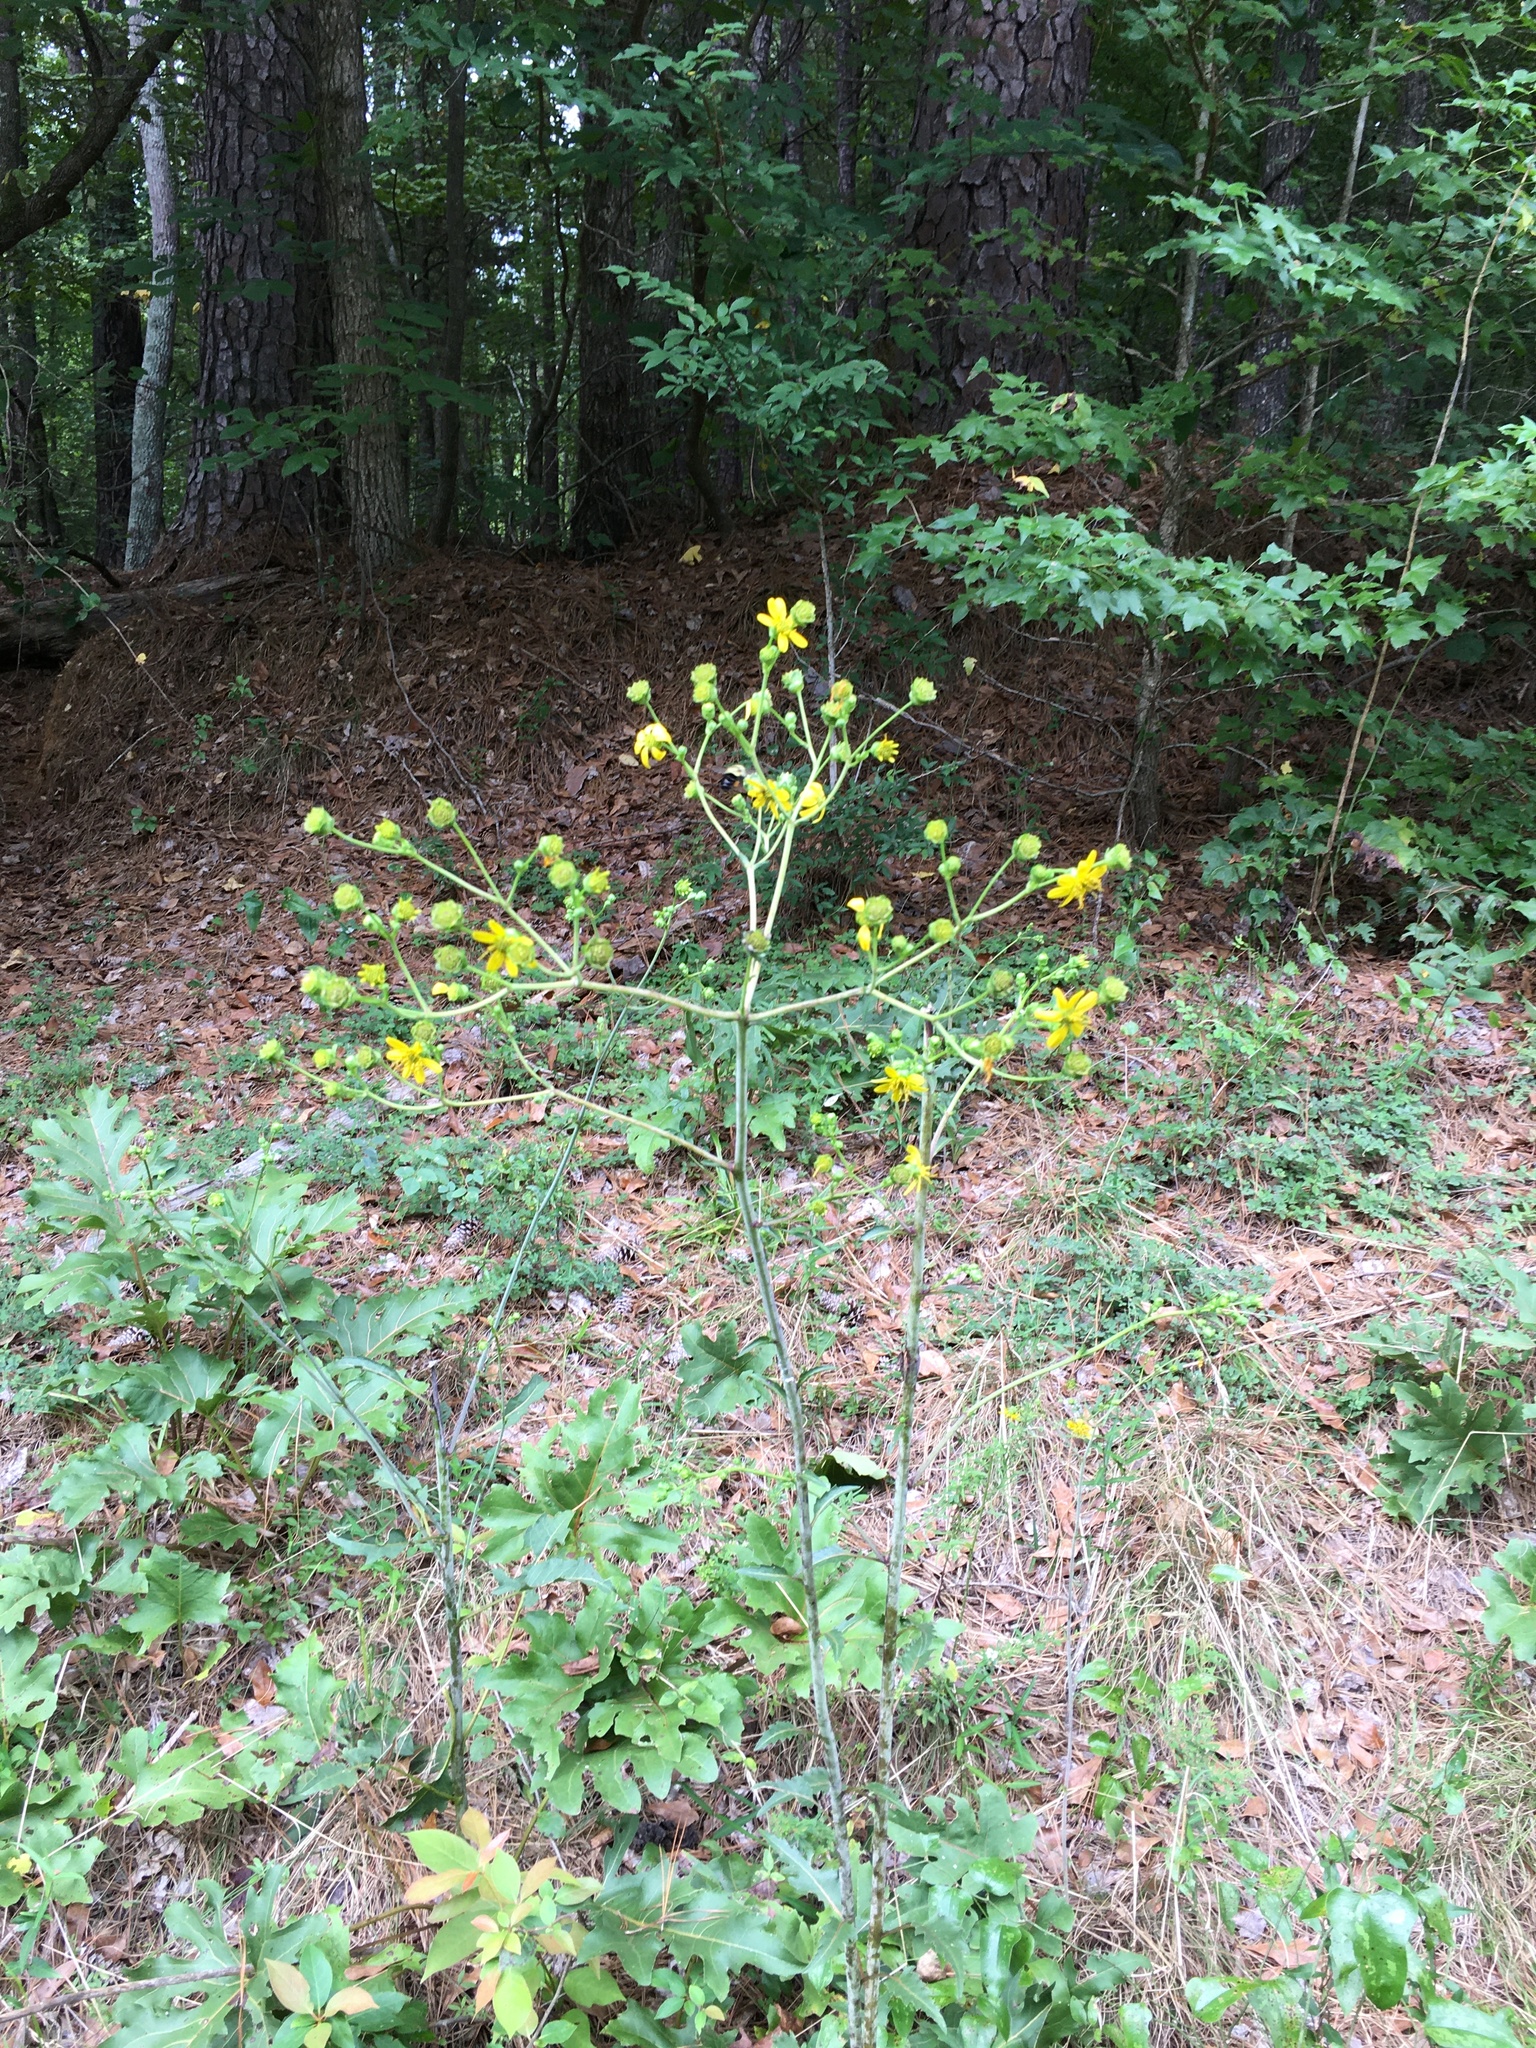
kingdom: Plantae
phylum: Tracheophyta
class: Magnoliopsida
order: Asterales
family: Asteraceae
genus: Silphium
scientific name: Silphium compositum
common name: Lesser basal-leaf rosinweed
